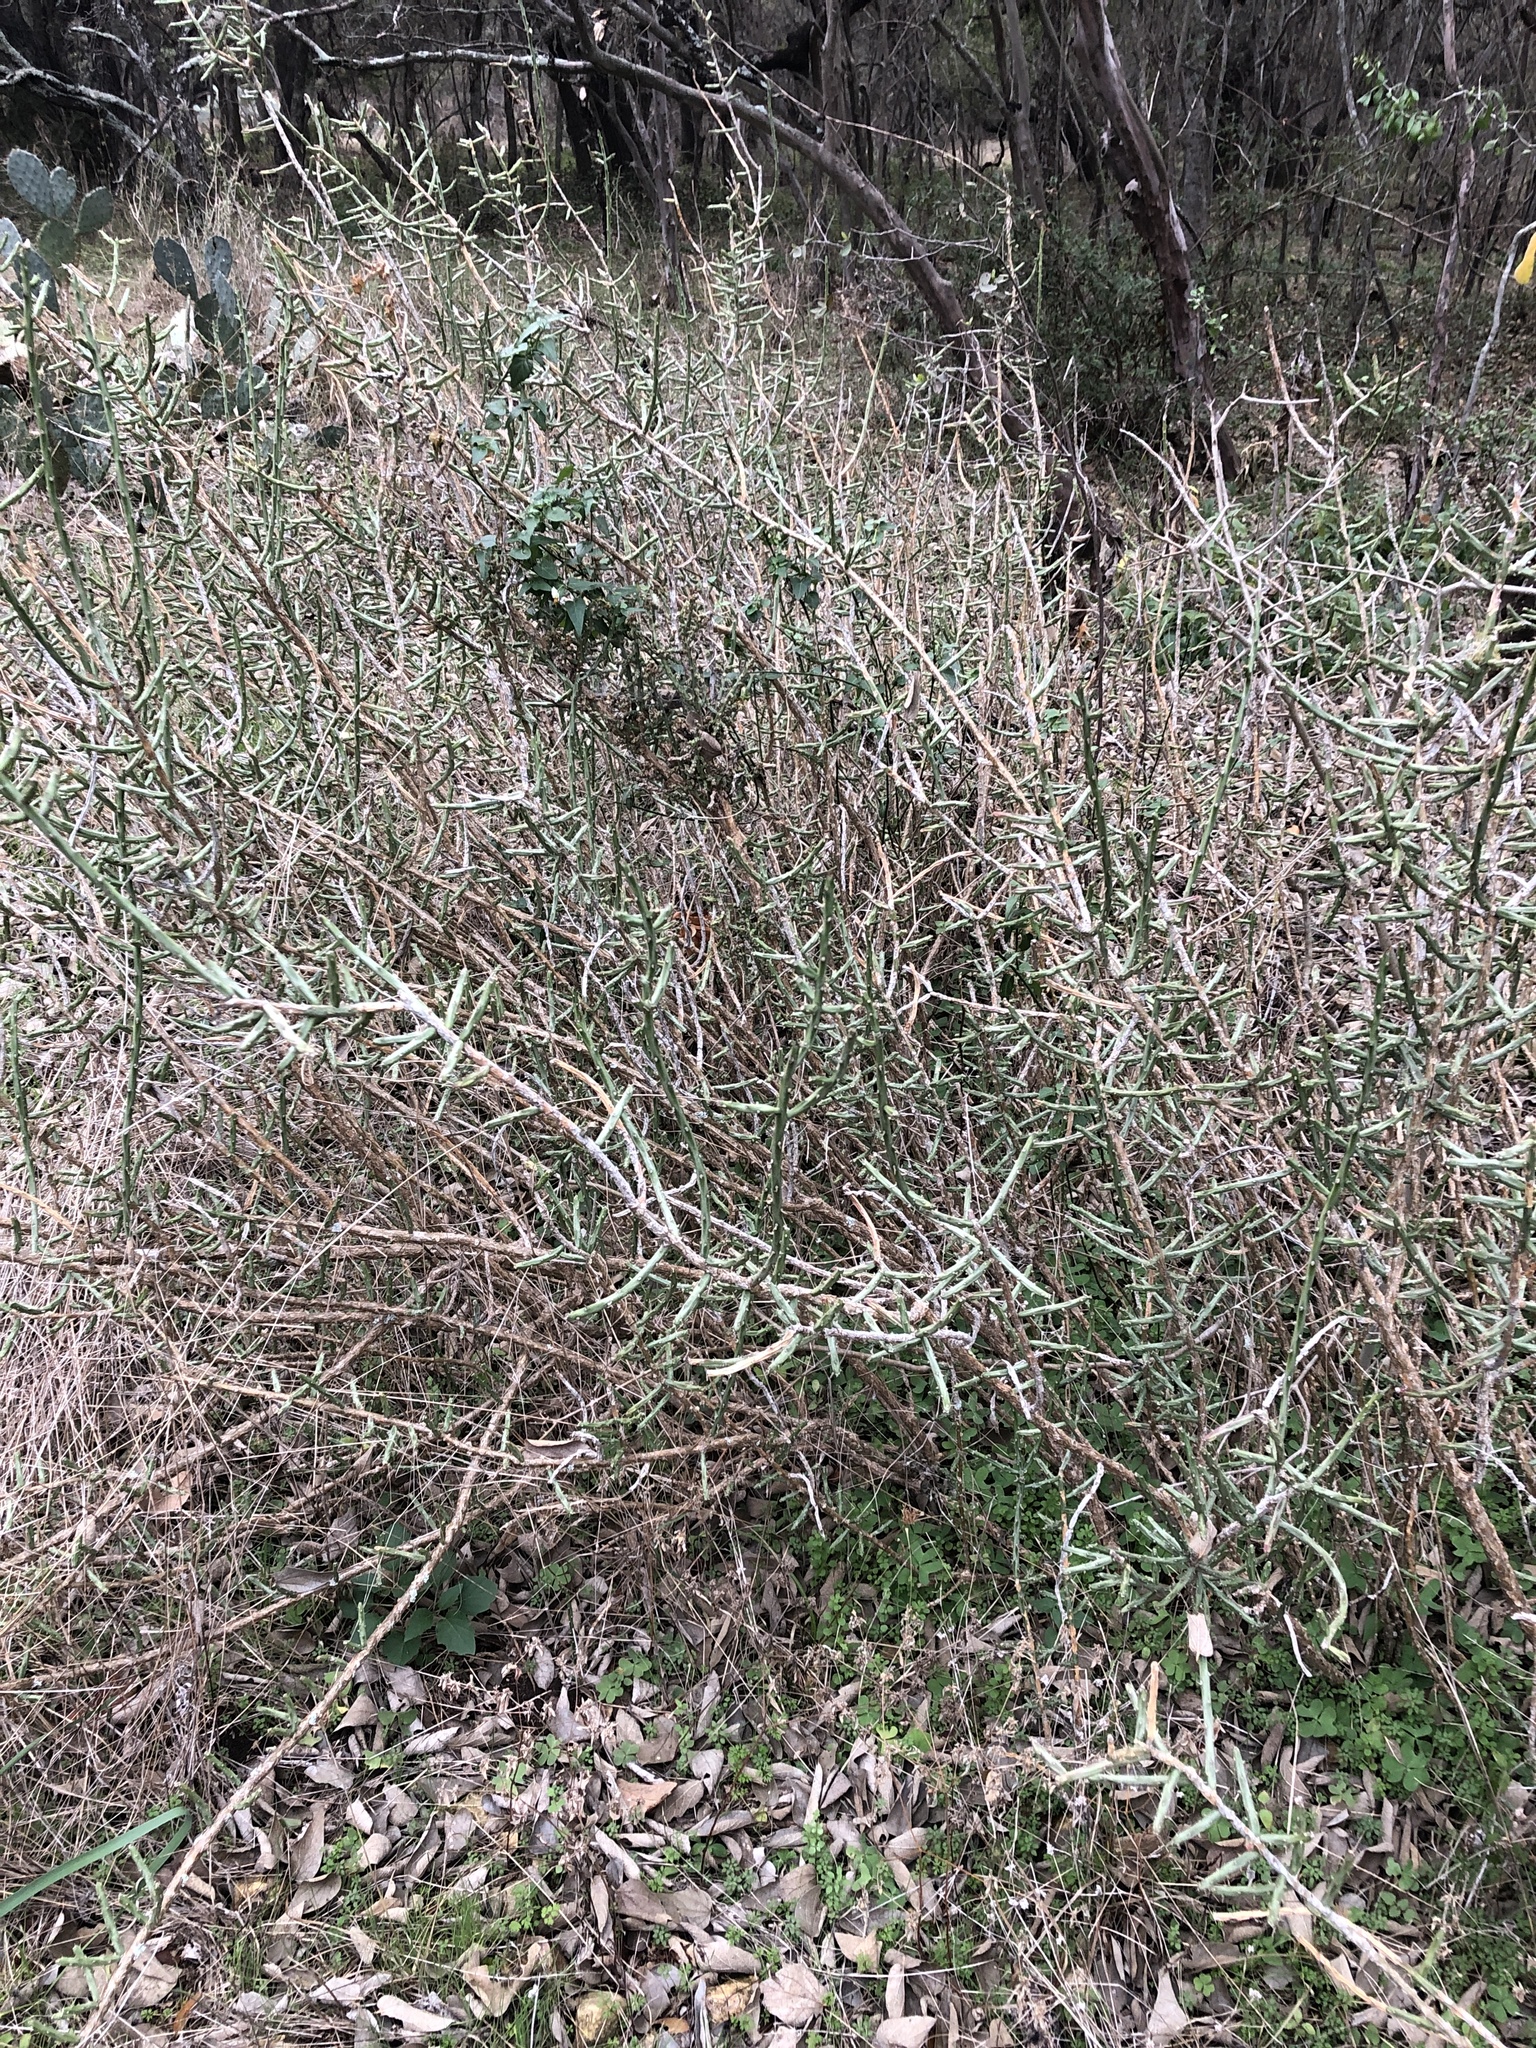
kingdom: Plantae
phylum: Tracheophyta
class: Magnoliopsida
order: Caryophyllales
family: Cactaceae
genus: Cylindropuntia
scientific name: Cylindropuntia leptocaulis
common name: Christmas cactus
